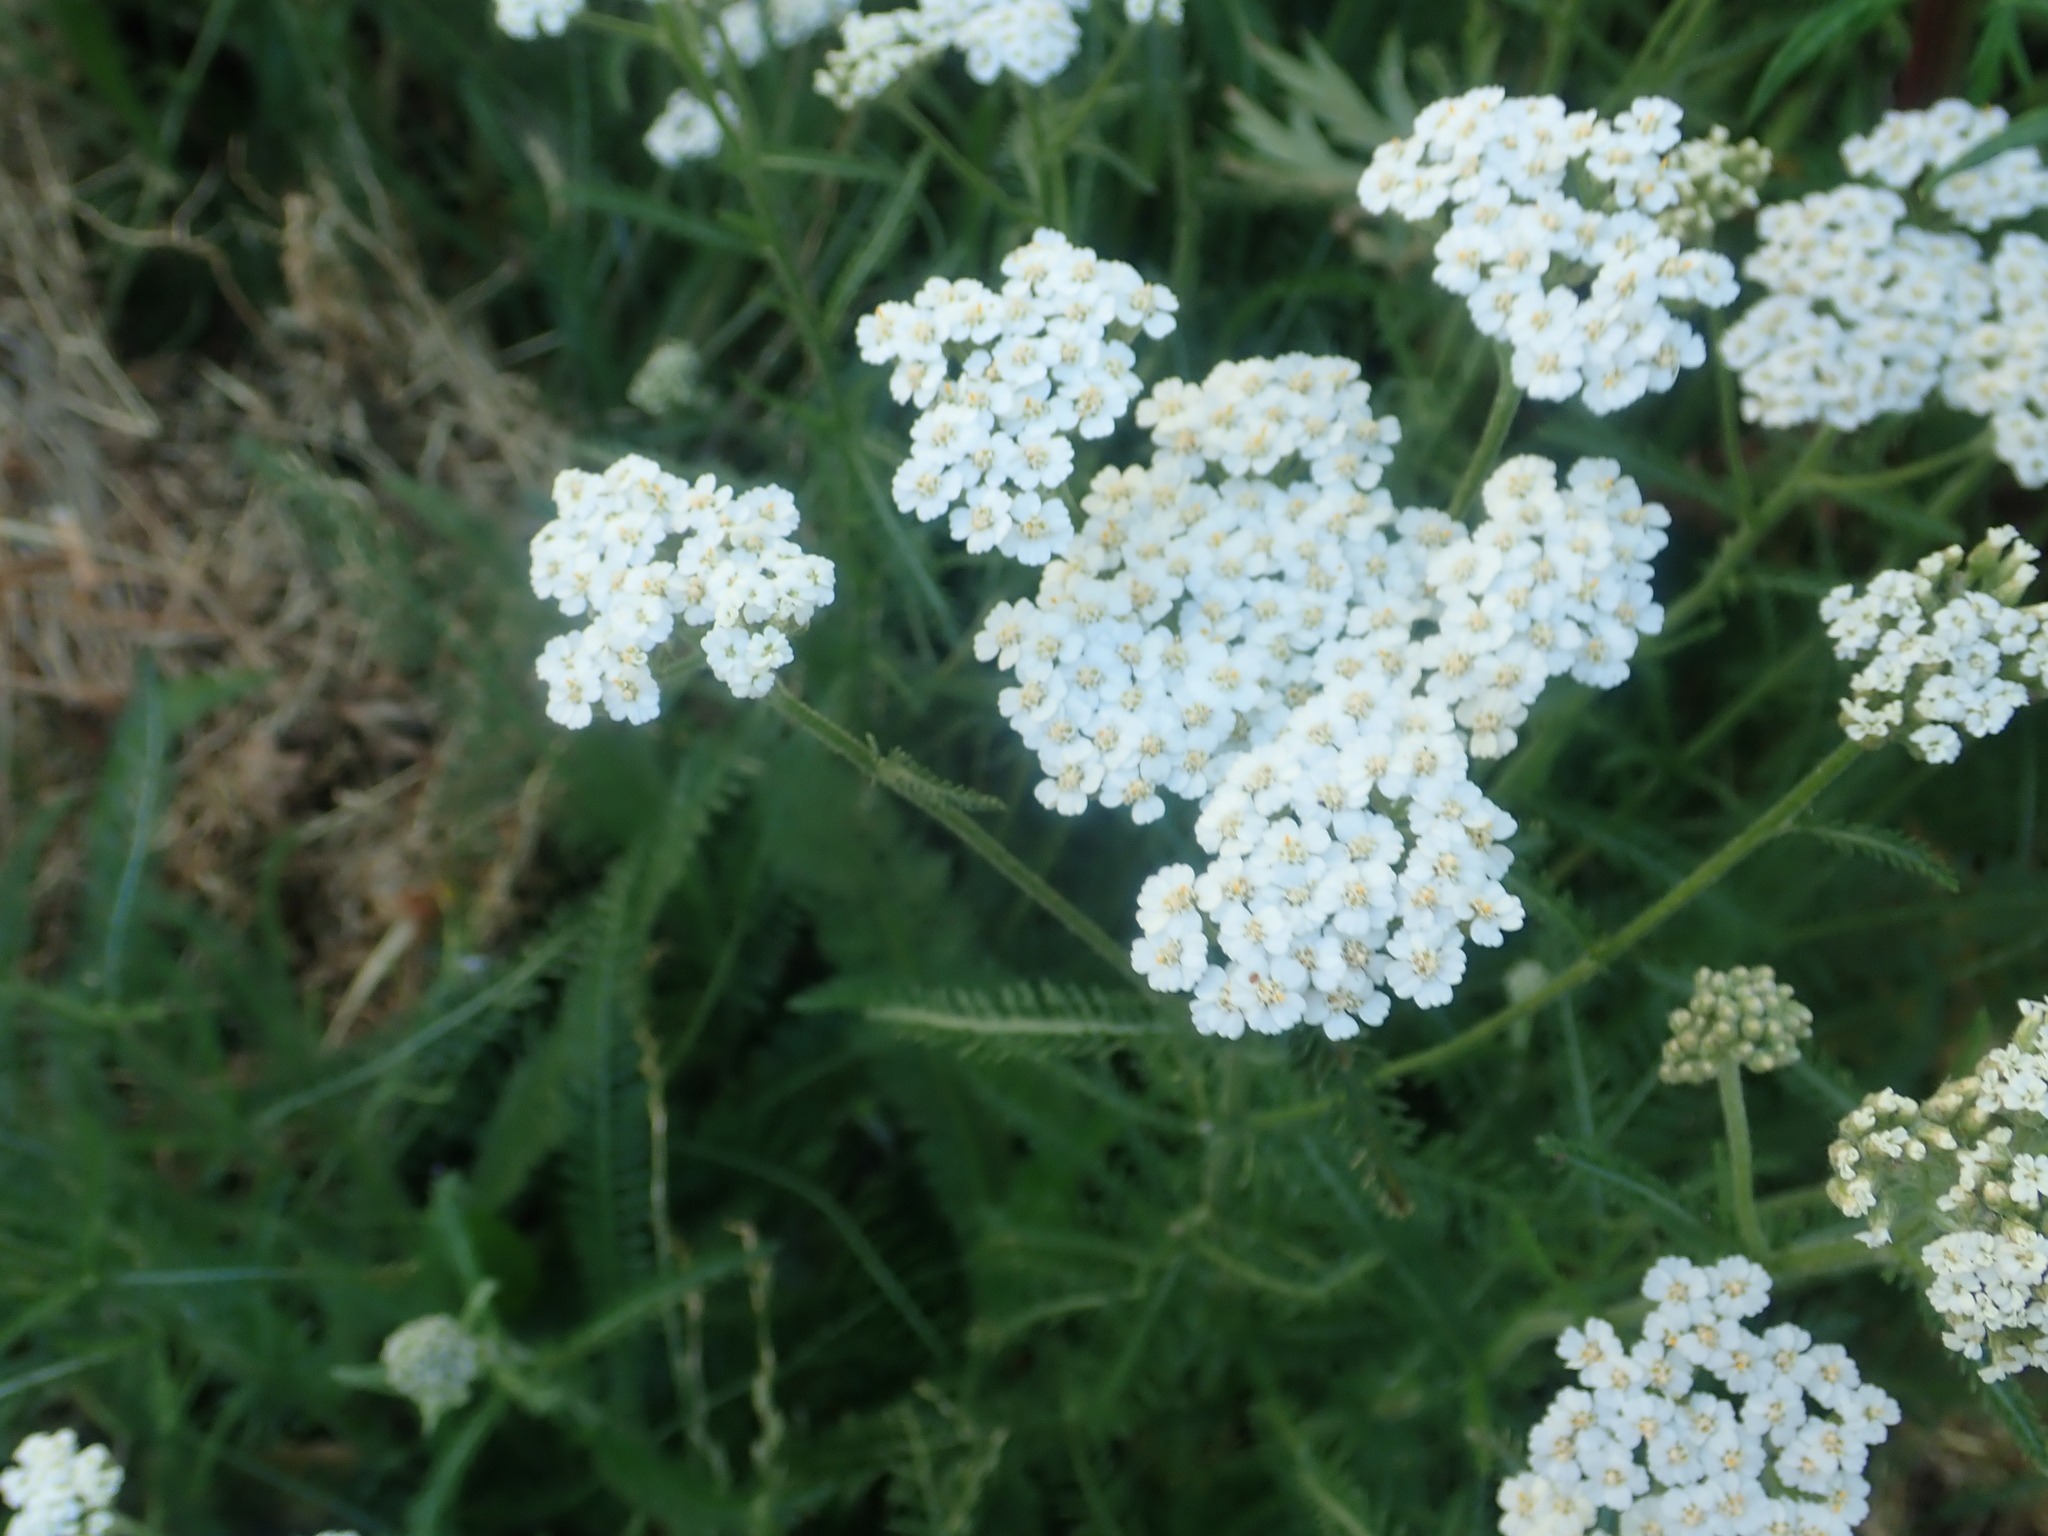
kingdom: Plantae
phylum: Tracheophyta
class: Magnoliopsida
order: Asterales
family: Asteraceae
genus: Achillea
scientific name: Achillea millefolium
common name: Yarrow
